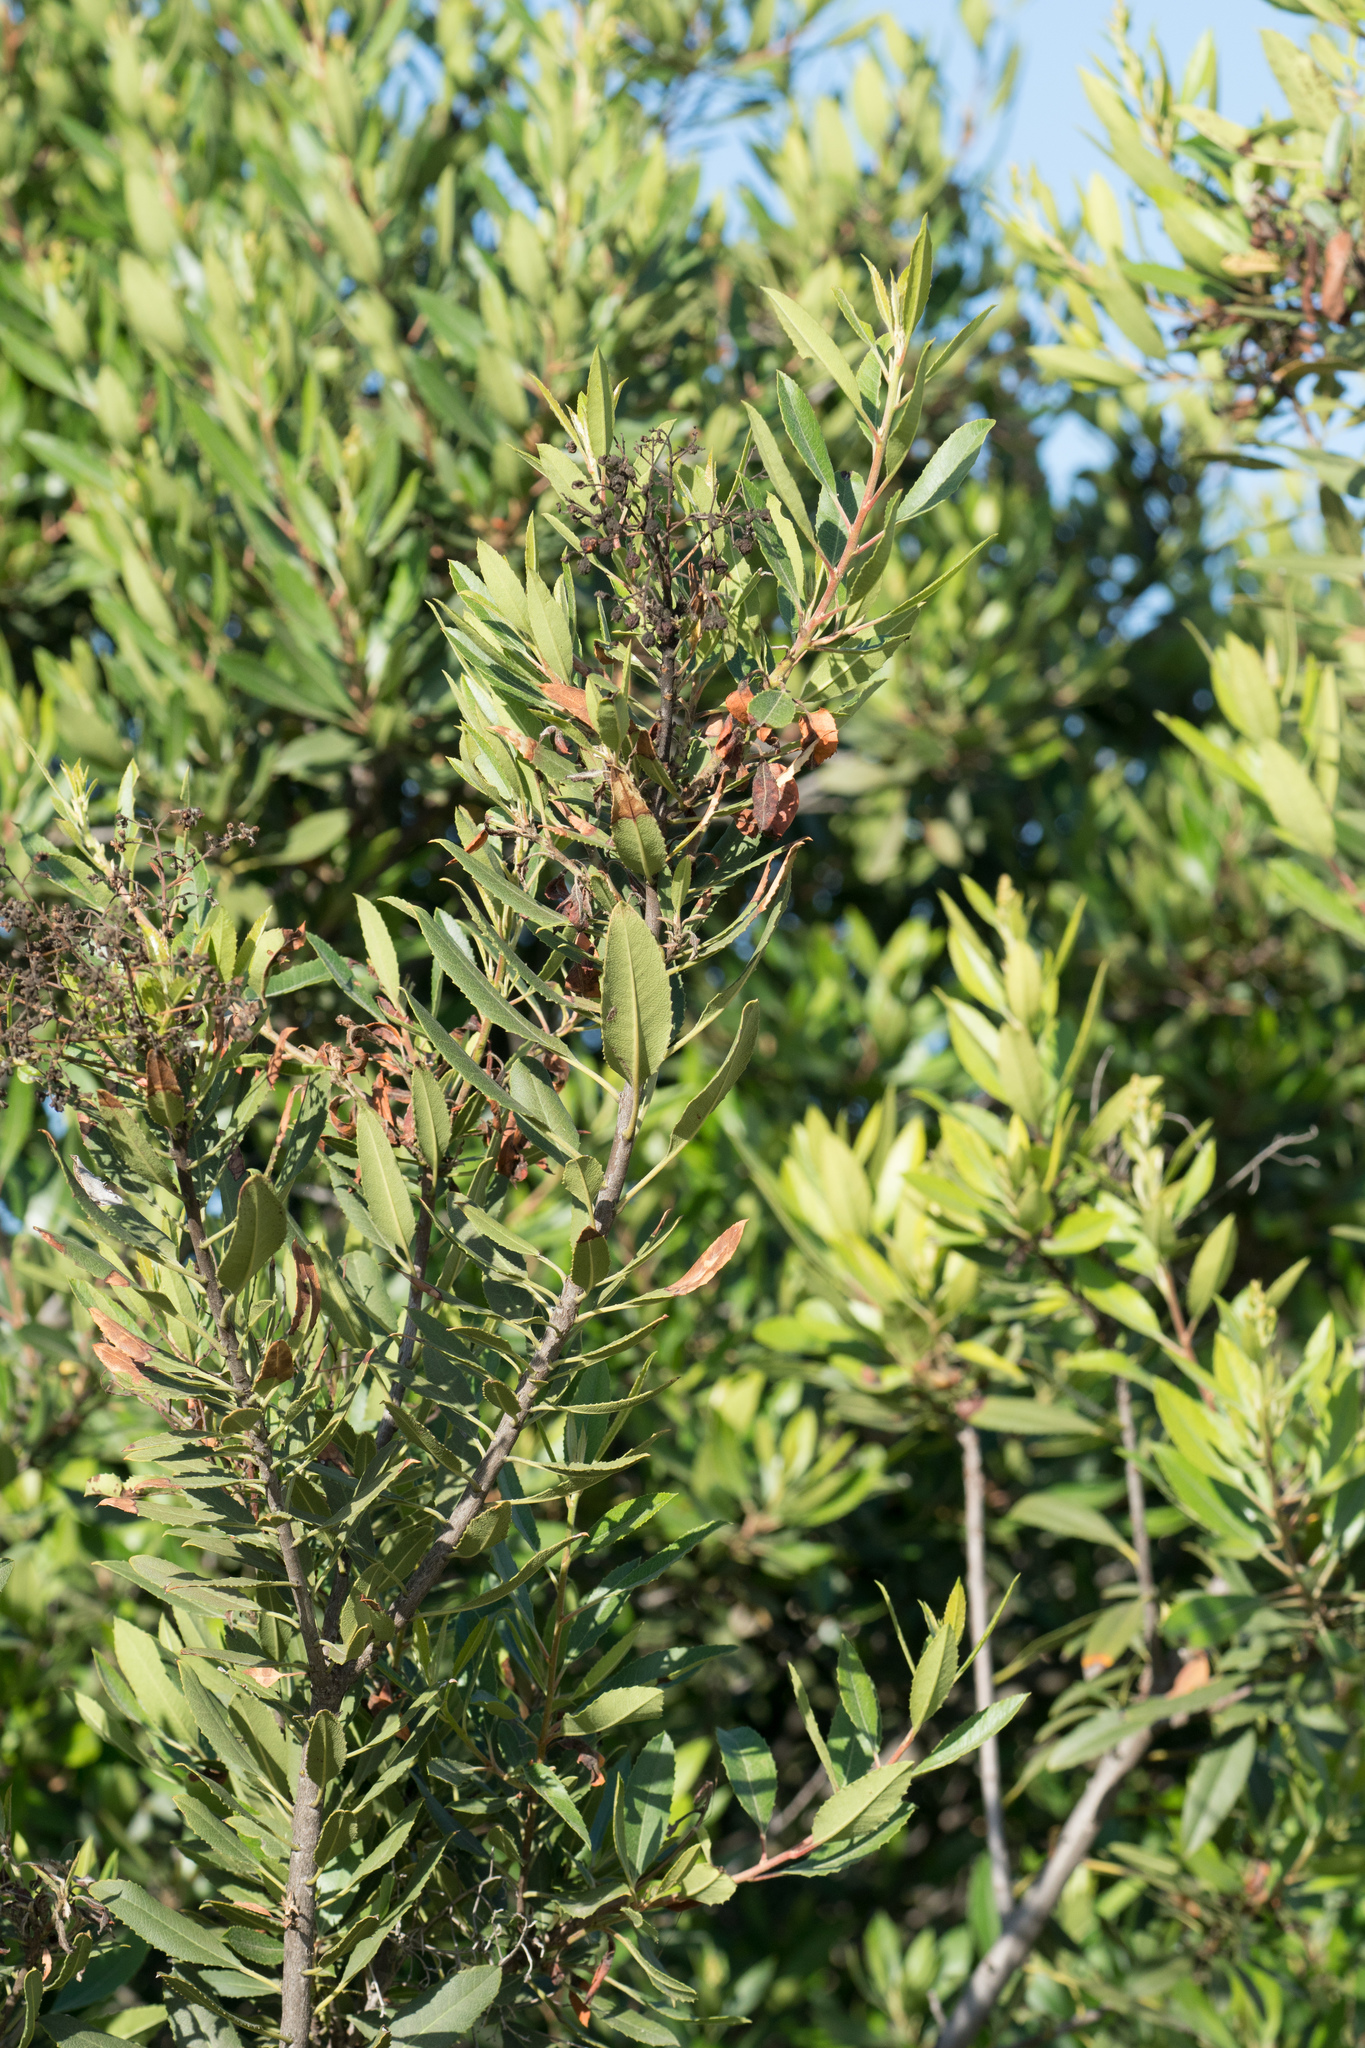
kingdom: Plantae
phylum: Tracheophyta
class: Magnoliopsida
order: Rosales
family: Rosaceae
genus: Heteromeles
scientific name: Heteromeles arbutifolia
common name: California-holly
